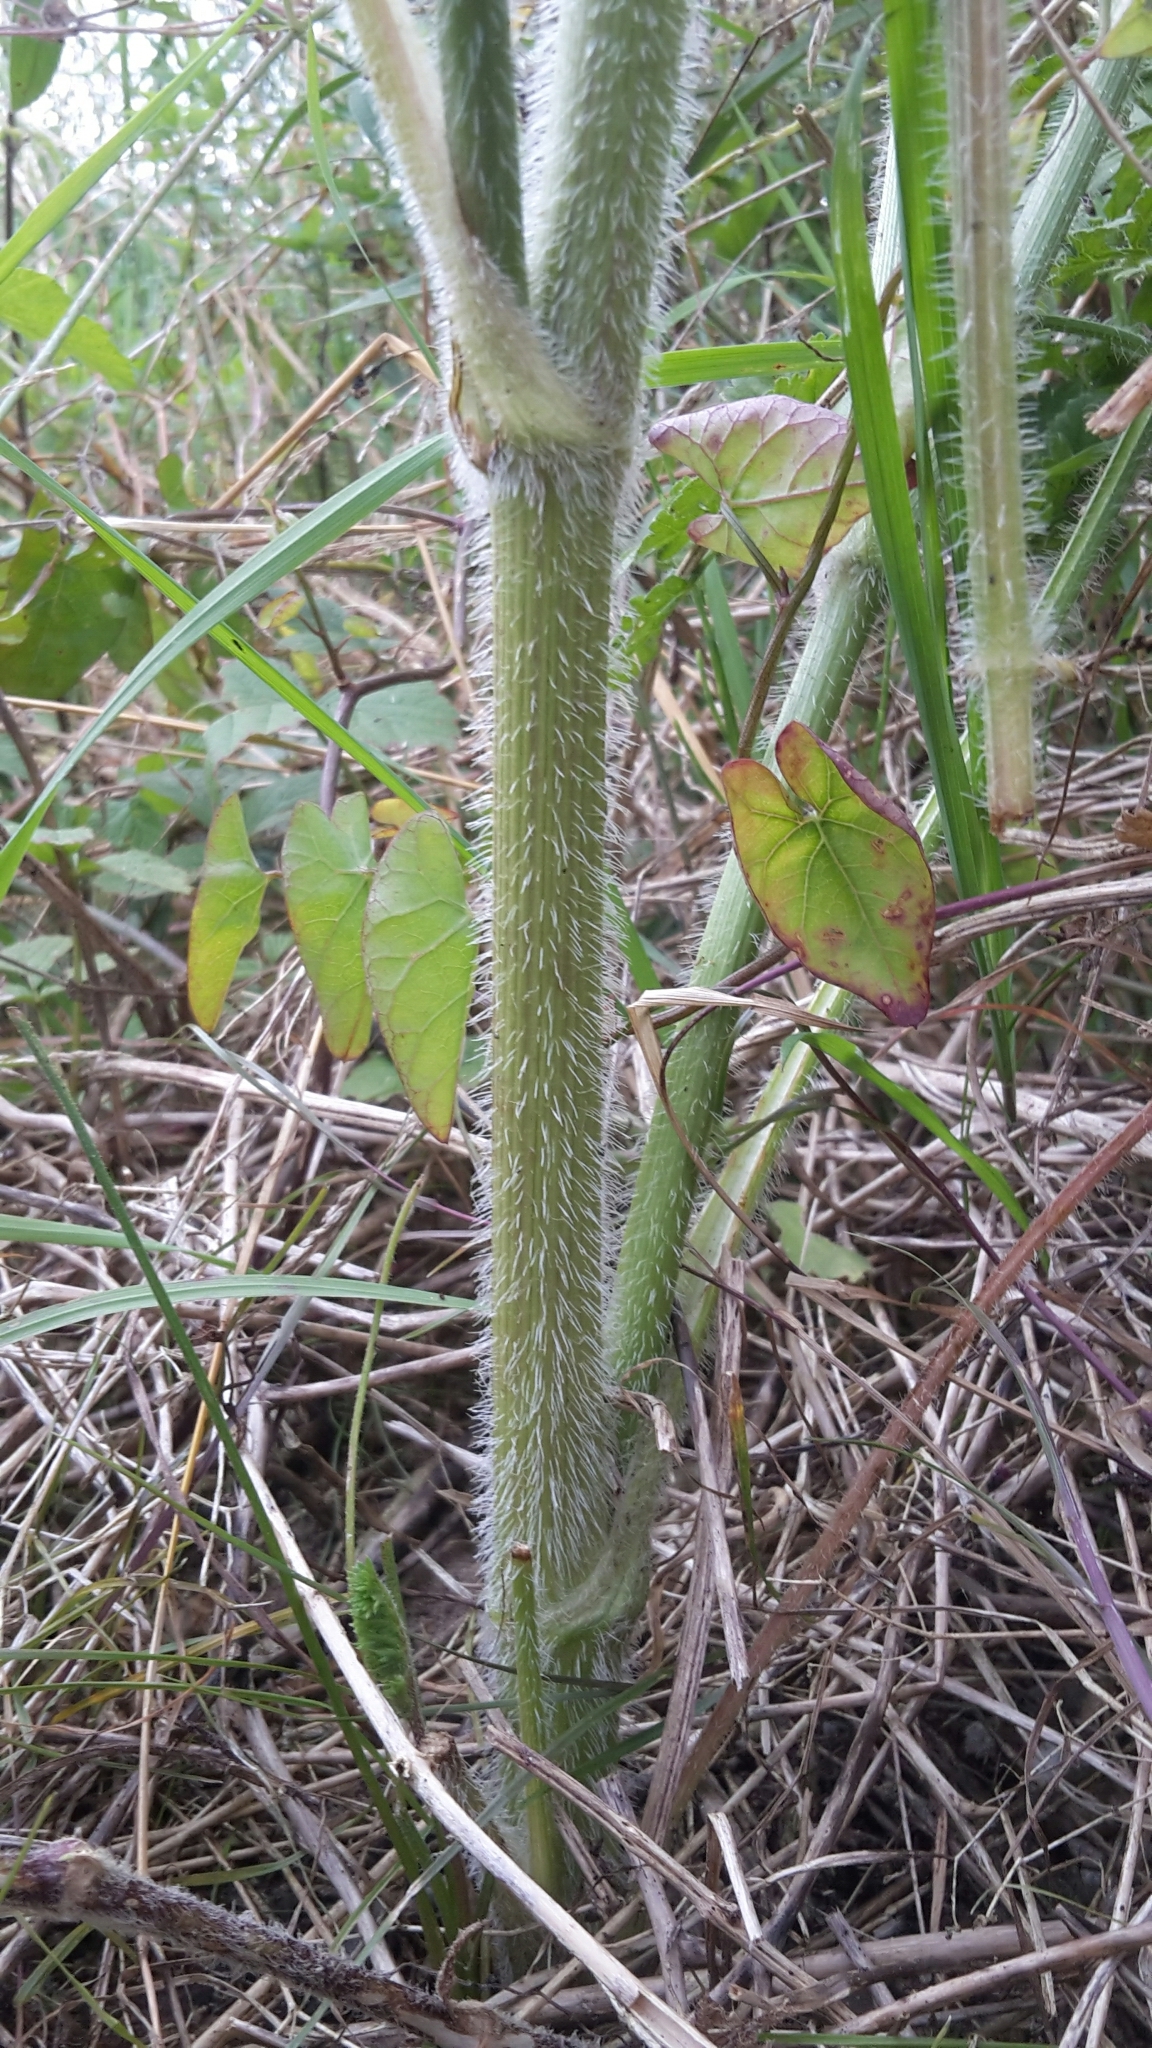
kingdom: Plantae
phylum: Tracheophyta
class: Magnoliopsida
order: Apiales
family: Apiaceae
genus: Daucus
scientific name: Daucus carota
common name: Wild carrot
